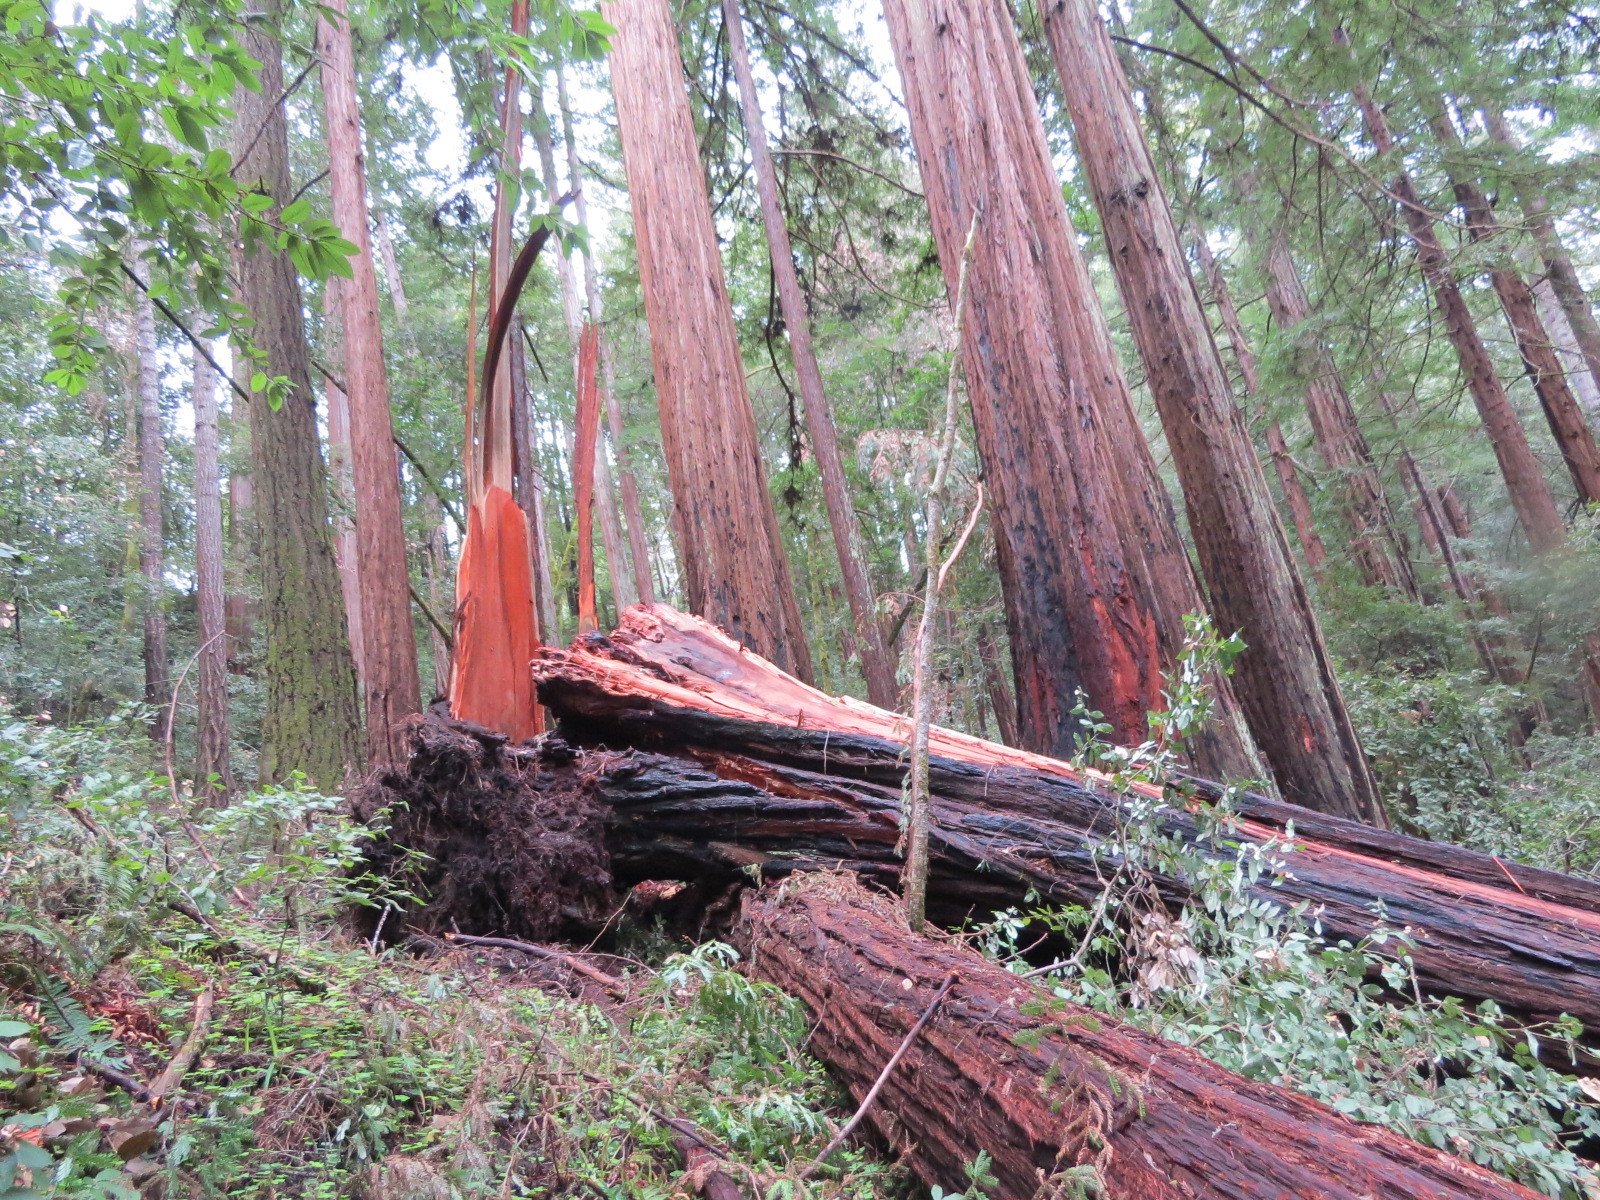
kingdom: Plantae
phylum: Tracheophyta
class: Pinopsida
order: Pinales
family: Cupressaceae
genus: Sequoia
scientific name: Sequoia sempervirens
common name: Coast redwood
